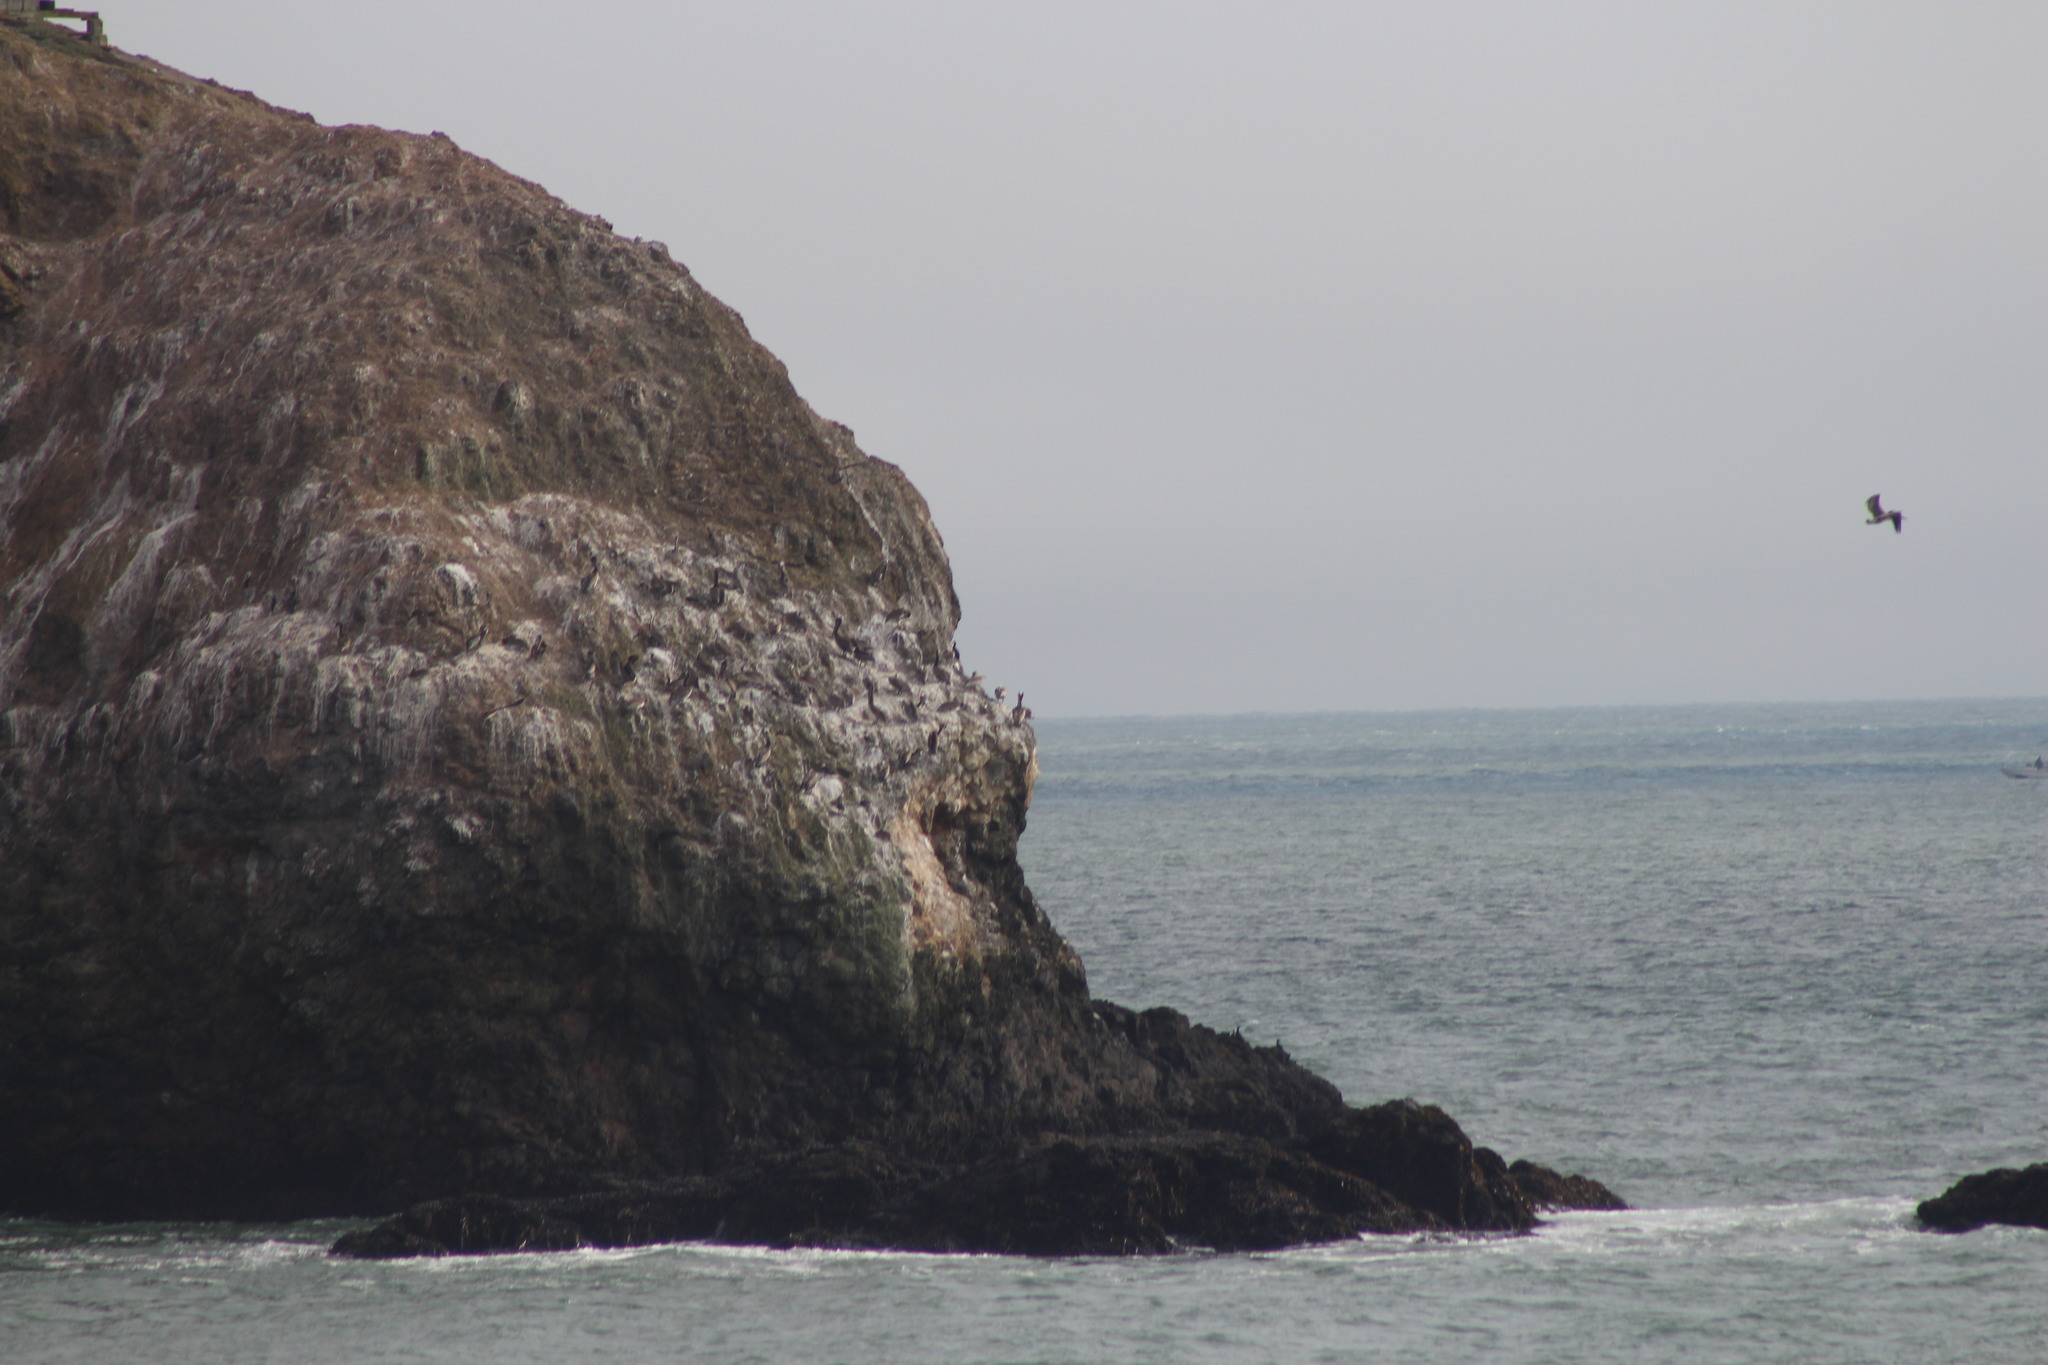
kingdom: Animalia
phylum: Chordata
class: Aves
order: Pelecaniformes
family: Pelecanidae
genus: Pelecanus
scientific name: Pelecanus occidentalis
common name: Brown pelican
